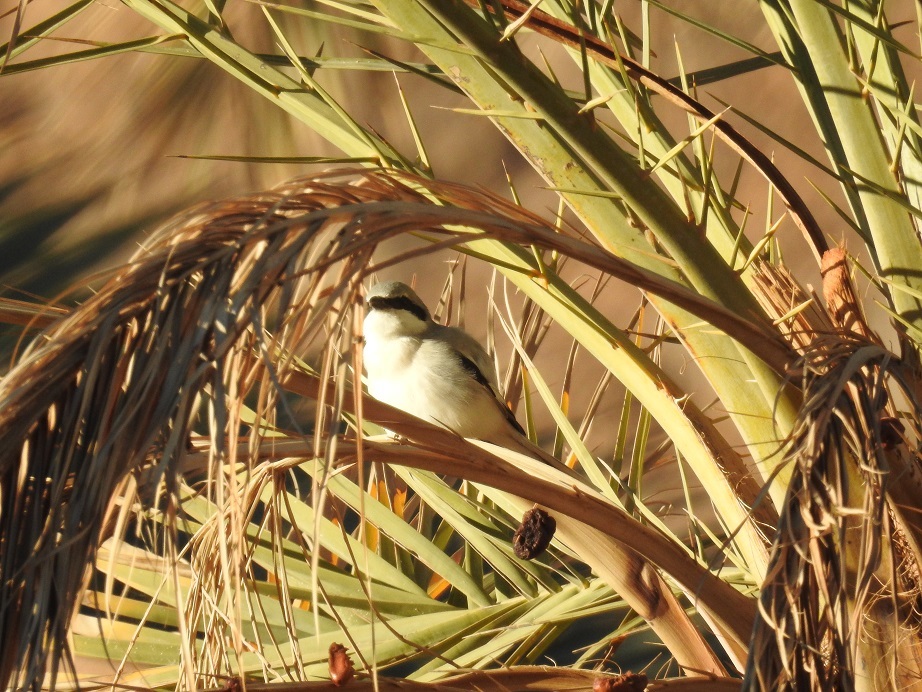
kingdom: Animalia
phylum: Chordata
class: Aves
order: Passeriformes
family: Laniidae
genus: Lanius
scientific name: Lanius excubitor
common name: Great grey shrike
